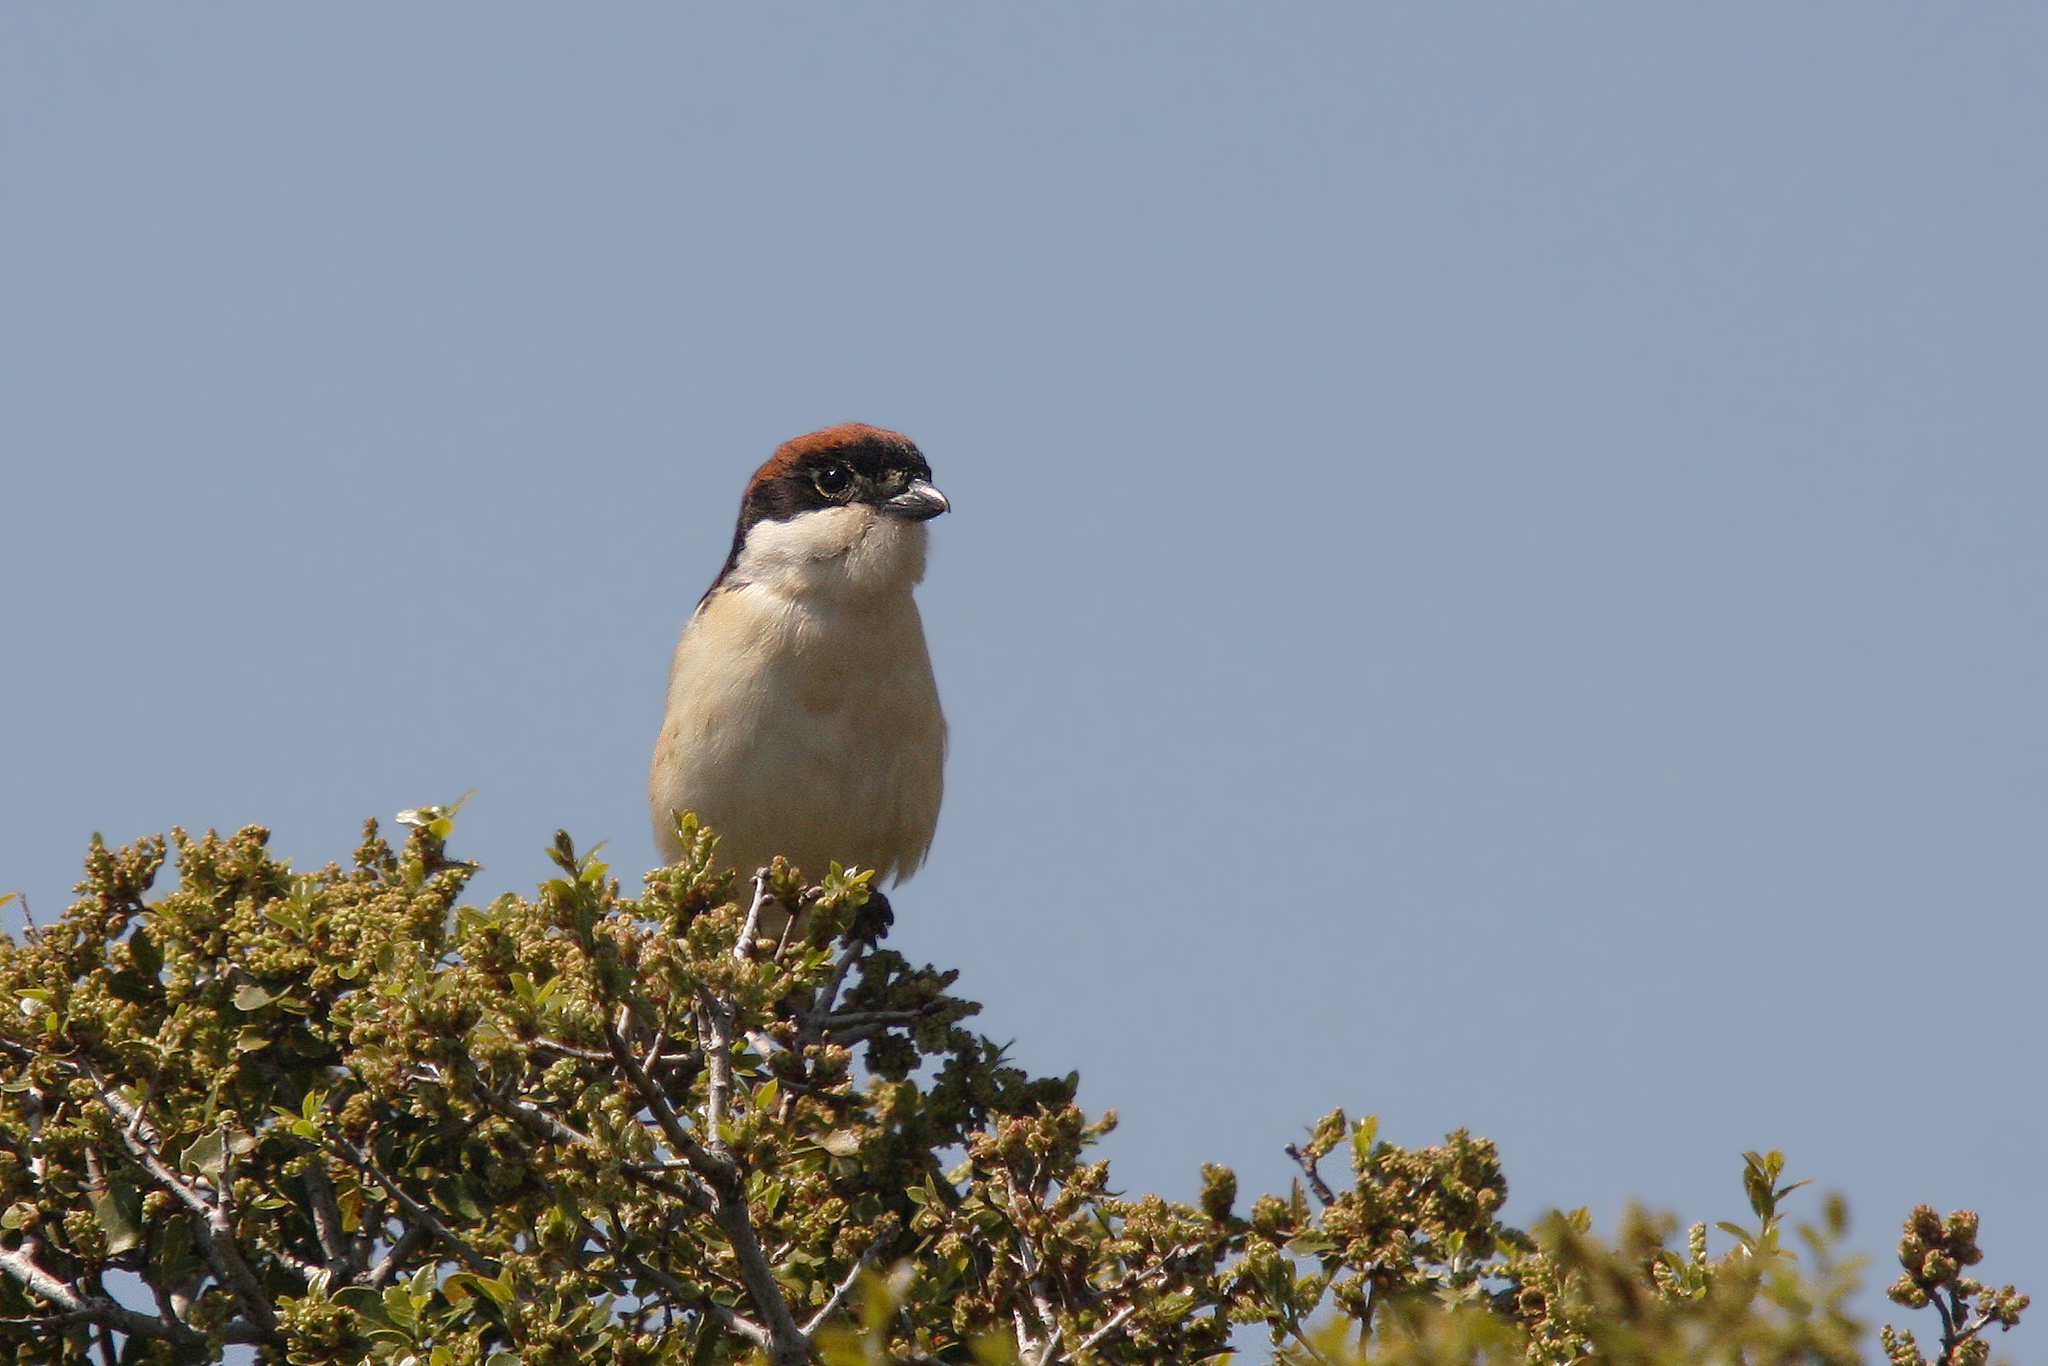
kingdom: Animalia
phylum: Chordata
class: Aves
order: Passeriformes
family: Laniidae
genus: Lanius
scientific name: Lanius senator
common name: Woodchat shrike
